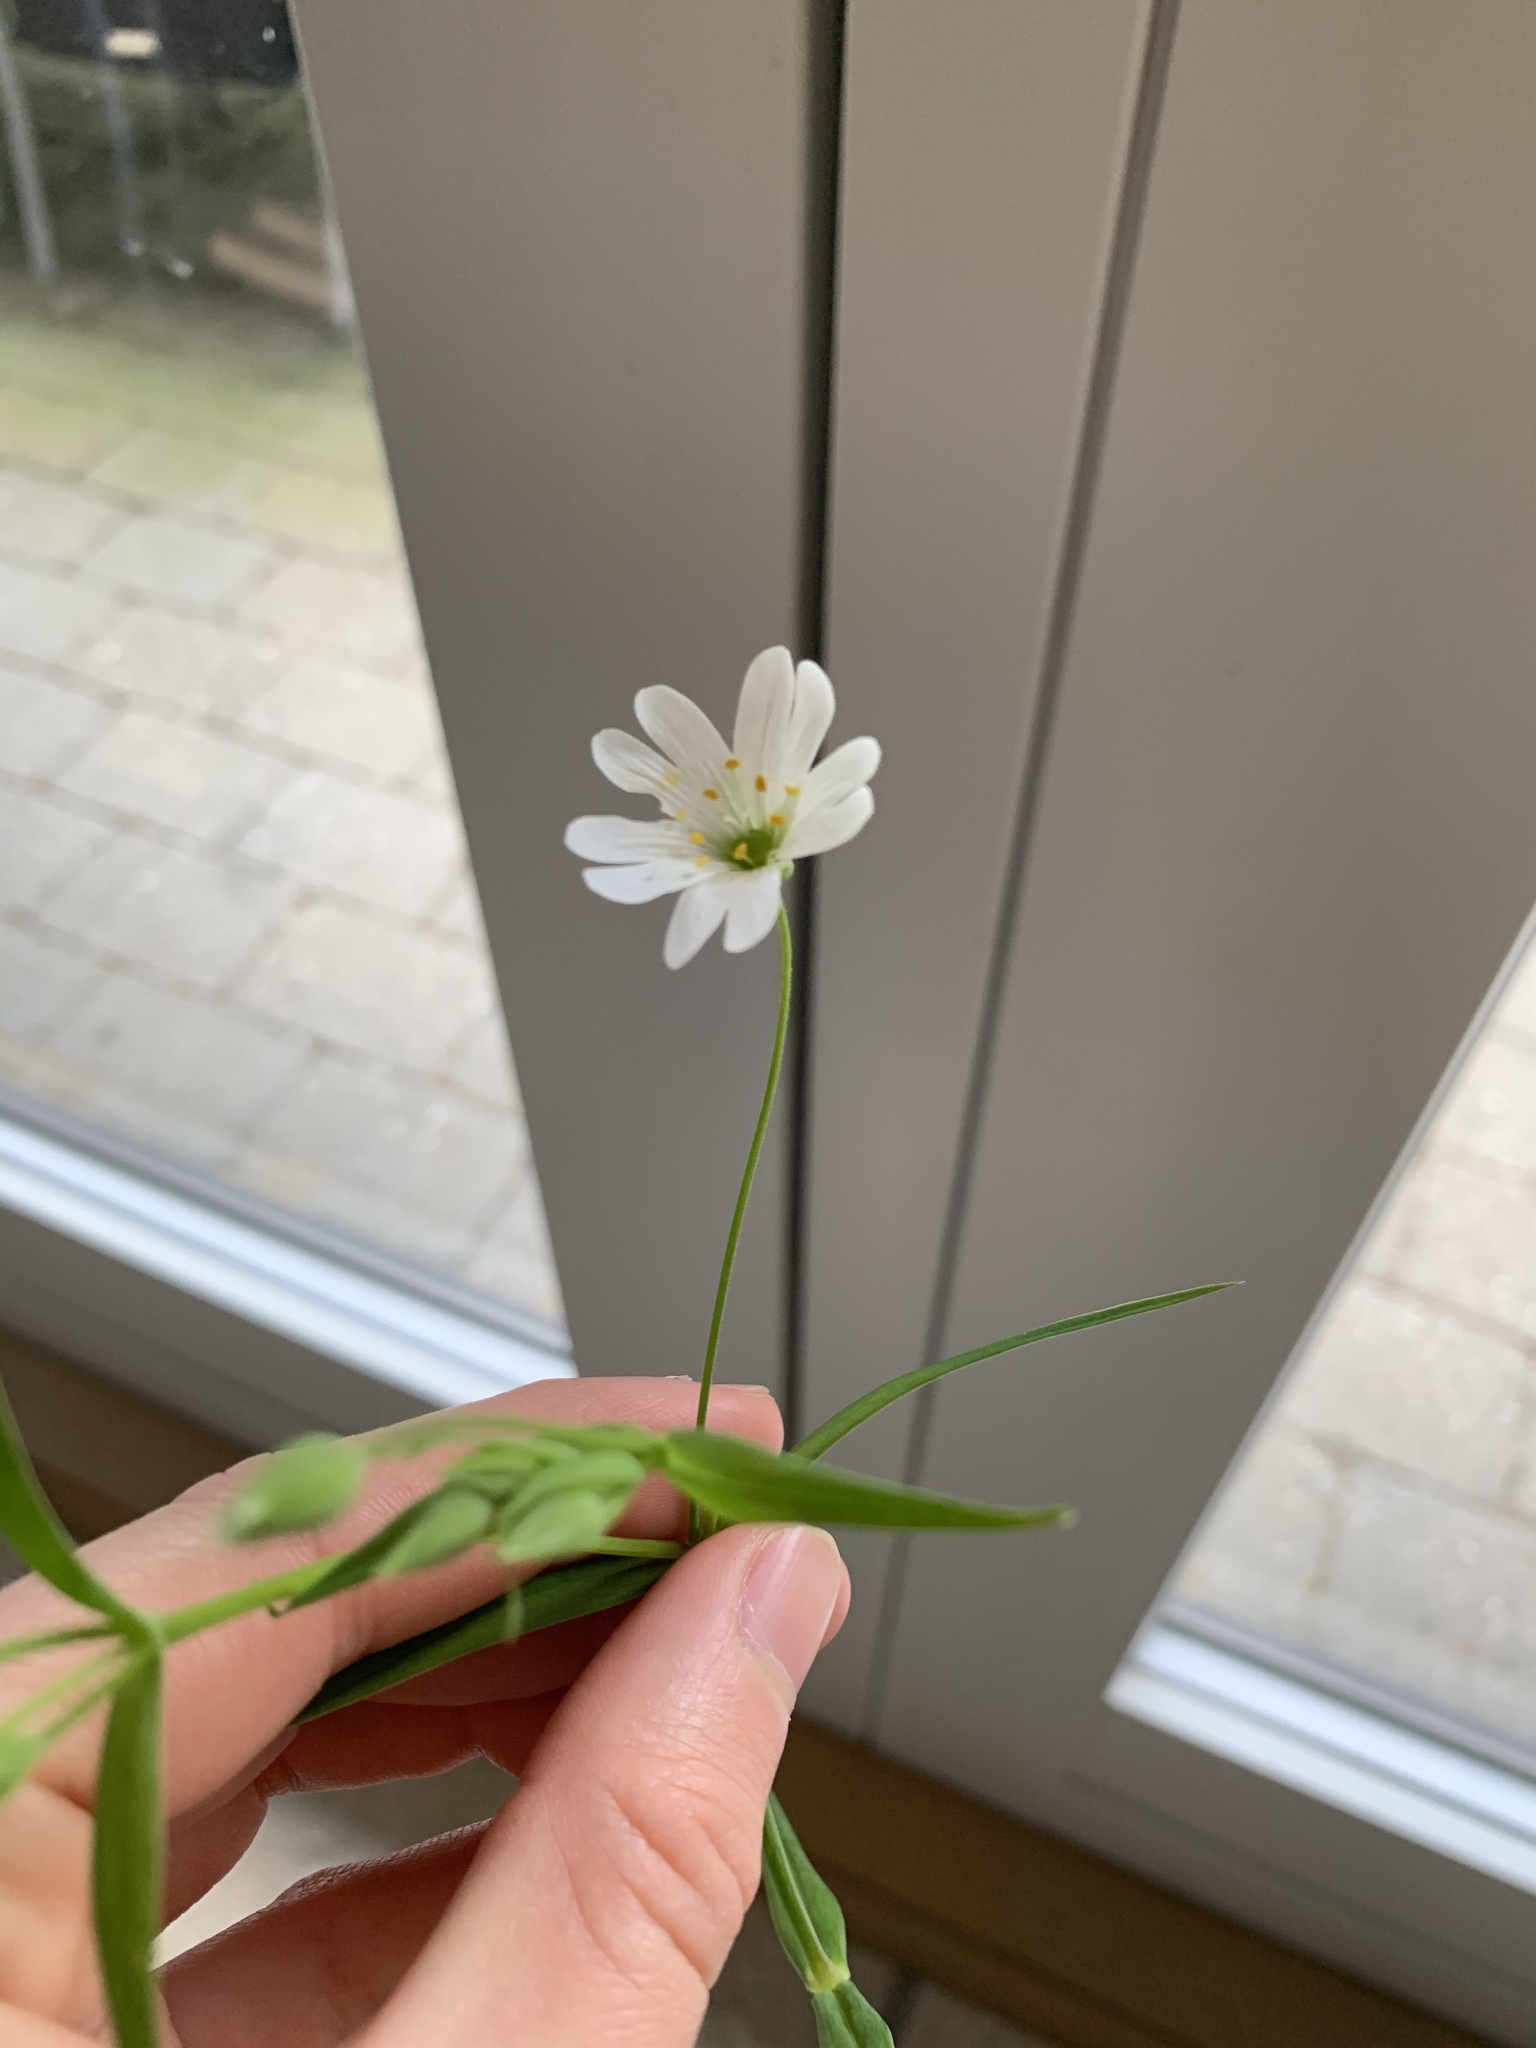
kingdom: Plantae
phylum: Tracheophyta
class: Magnoliopsida
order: Caryophyllales
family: Caryophyllaceae
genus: Rabelera
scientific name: Rabelera holostea
